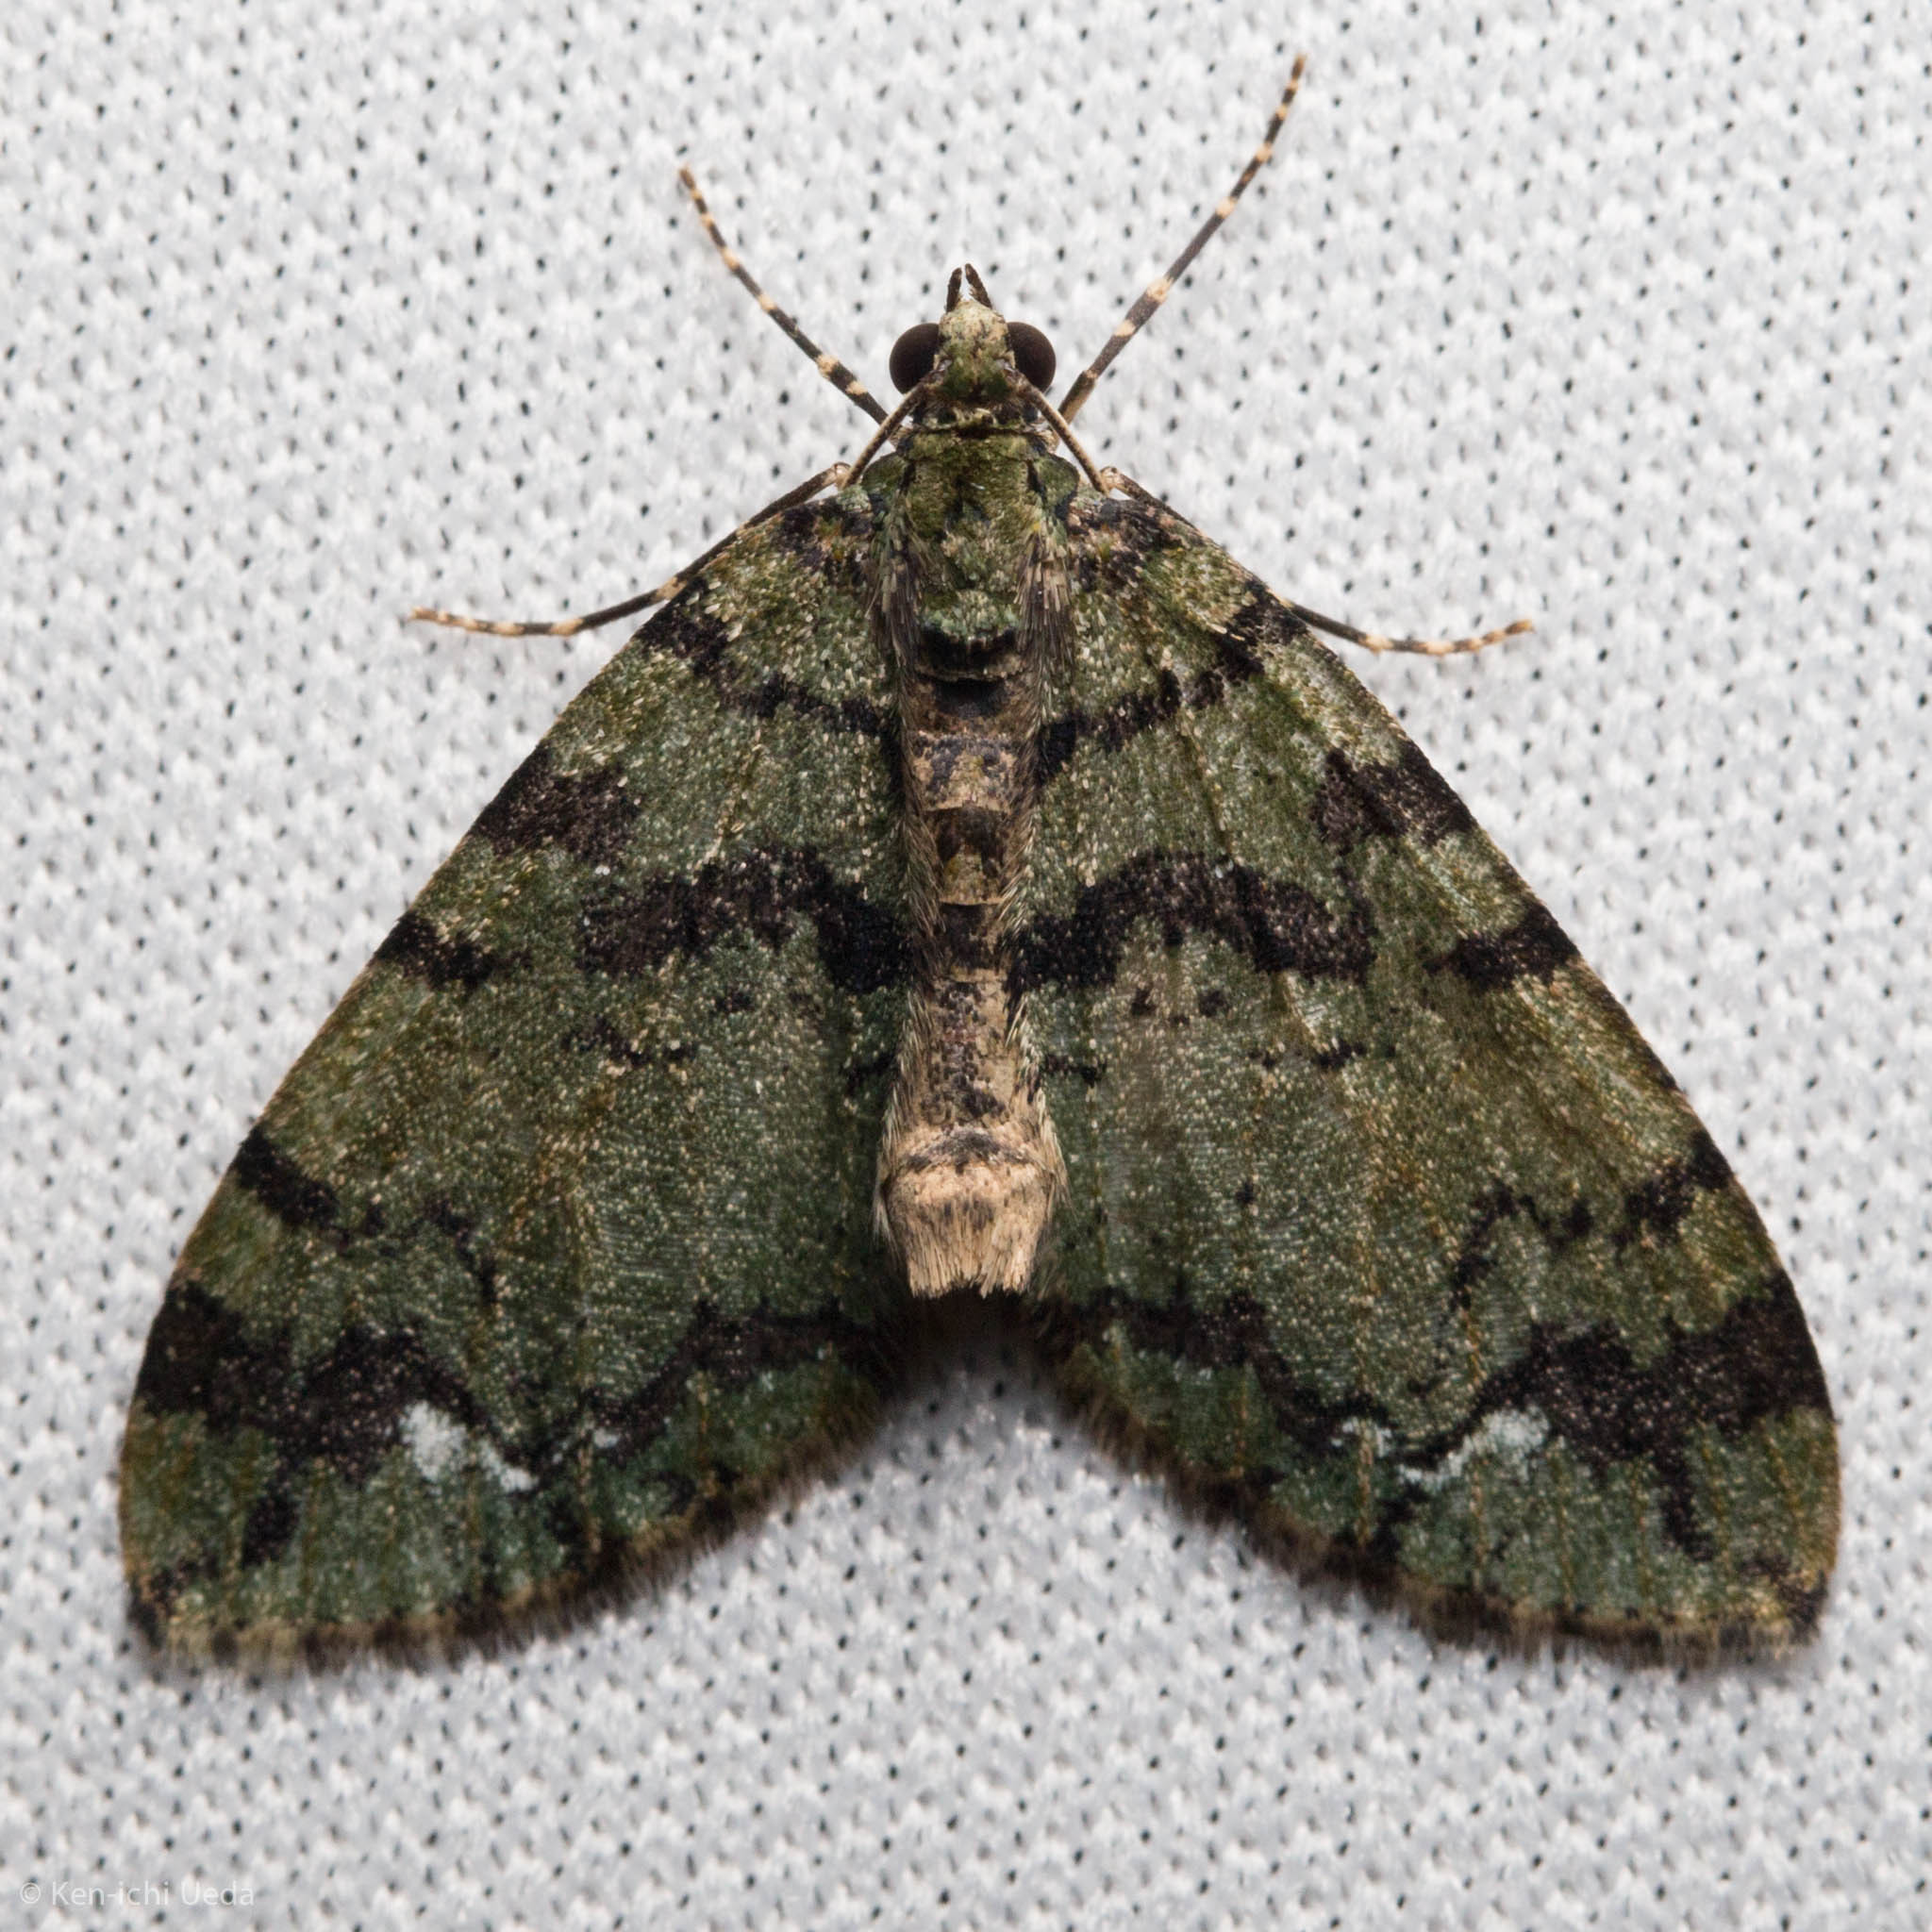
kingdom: Animalia
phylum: Arthropoda
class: Insecta
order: Lepidoptera
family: Geometridae
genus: Hydriomena
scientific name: Hydriomena albifasciata
